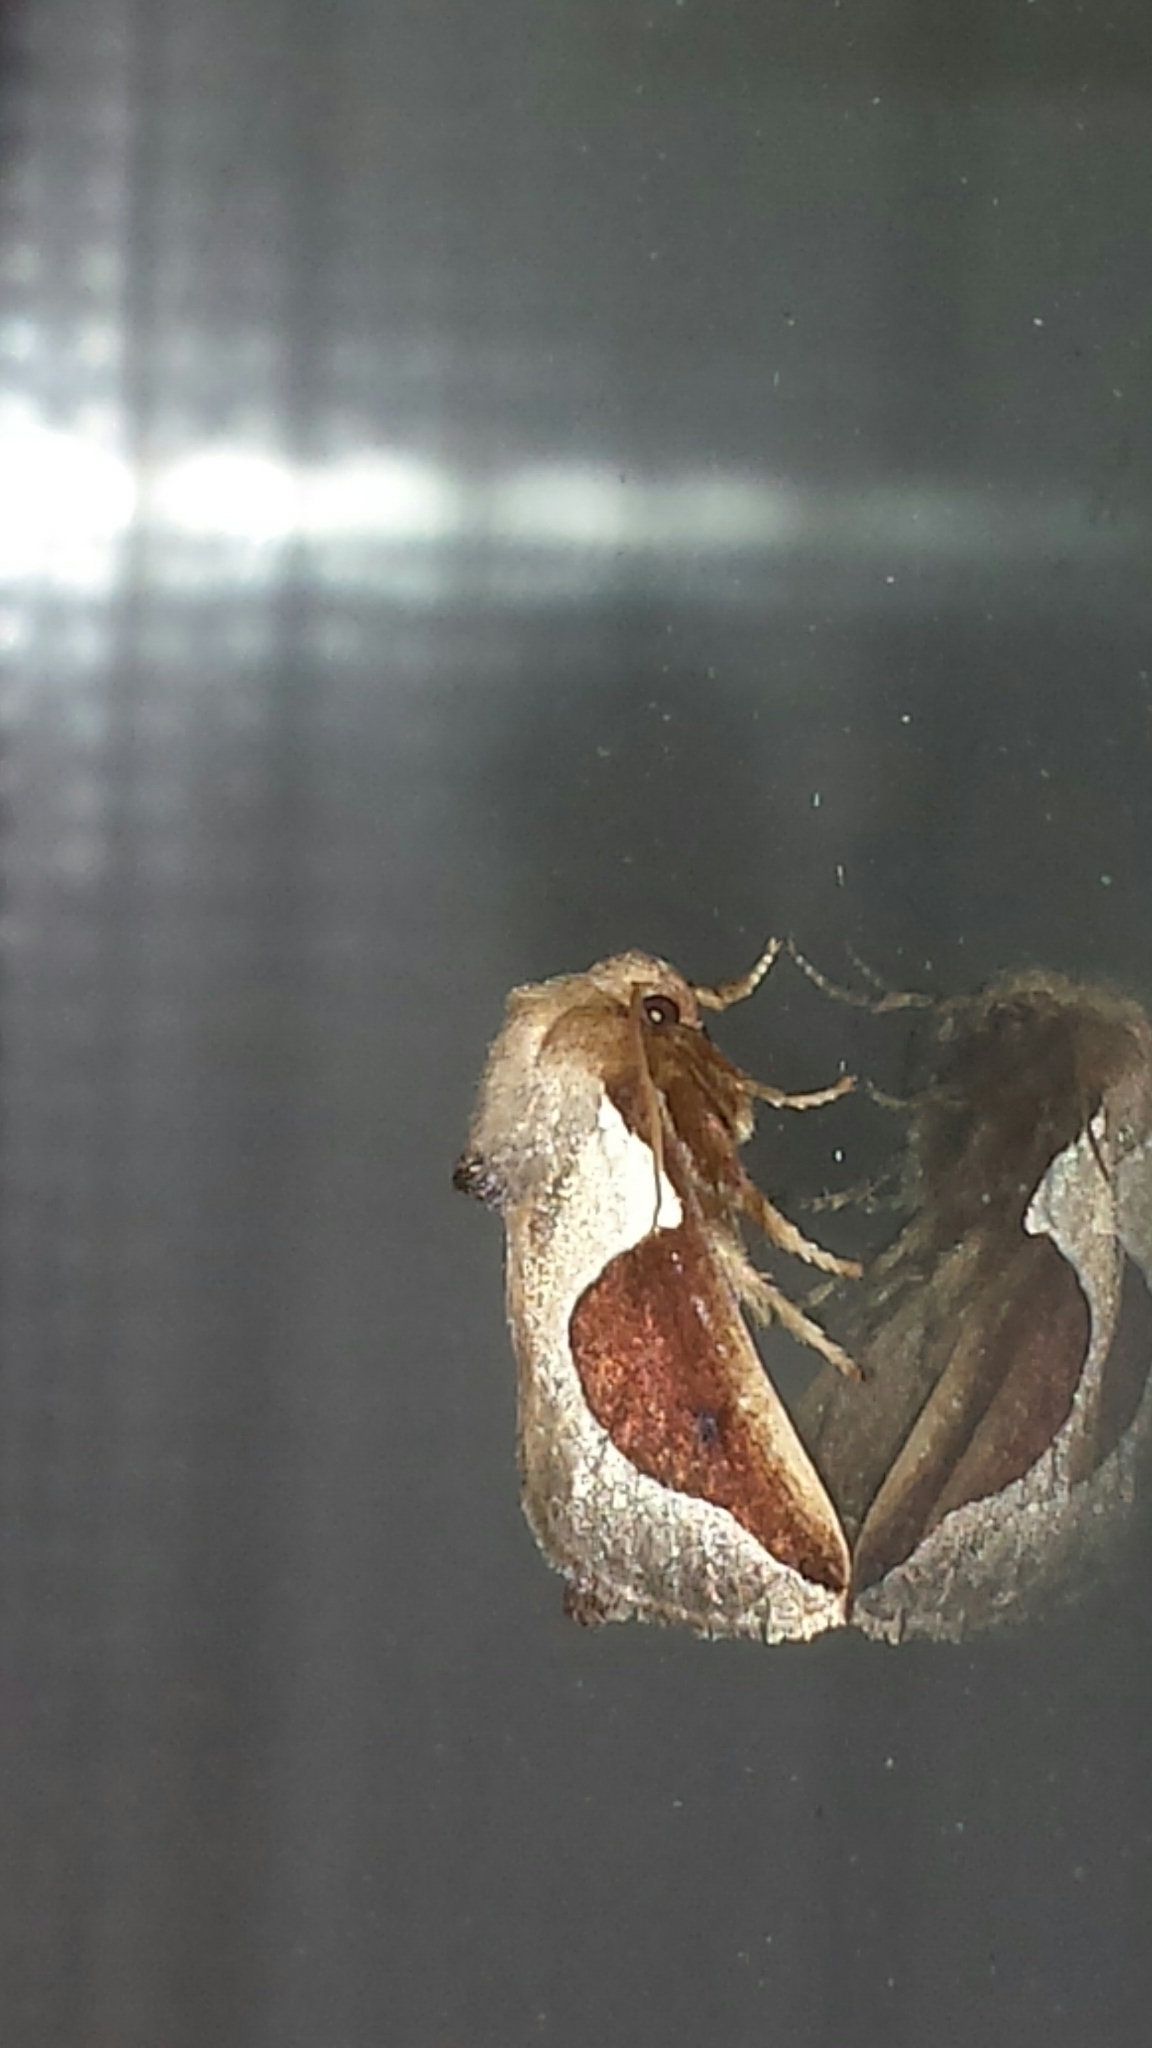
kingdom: Animalia
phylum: Arthropoda
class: Insecta
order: Lepidoptera
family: Limacodidae
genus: Prolimacodes
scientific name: Prolimacodes badia
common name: Skiff moth
